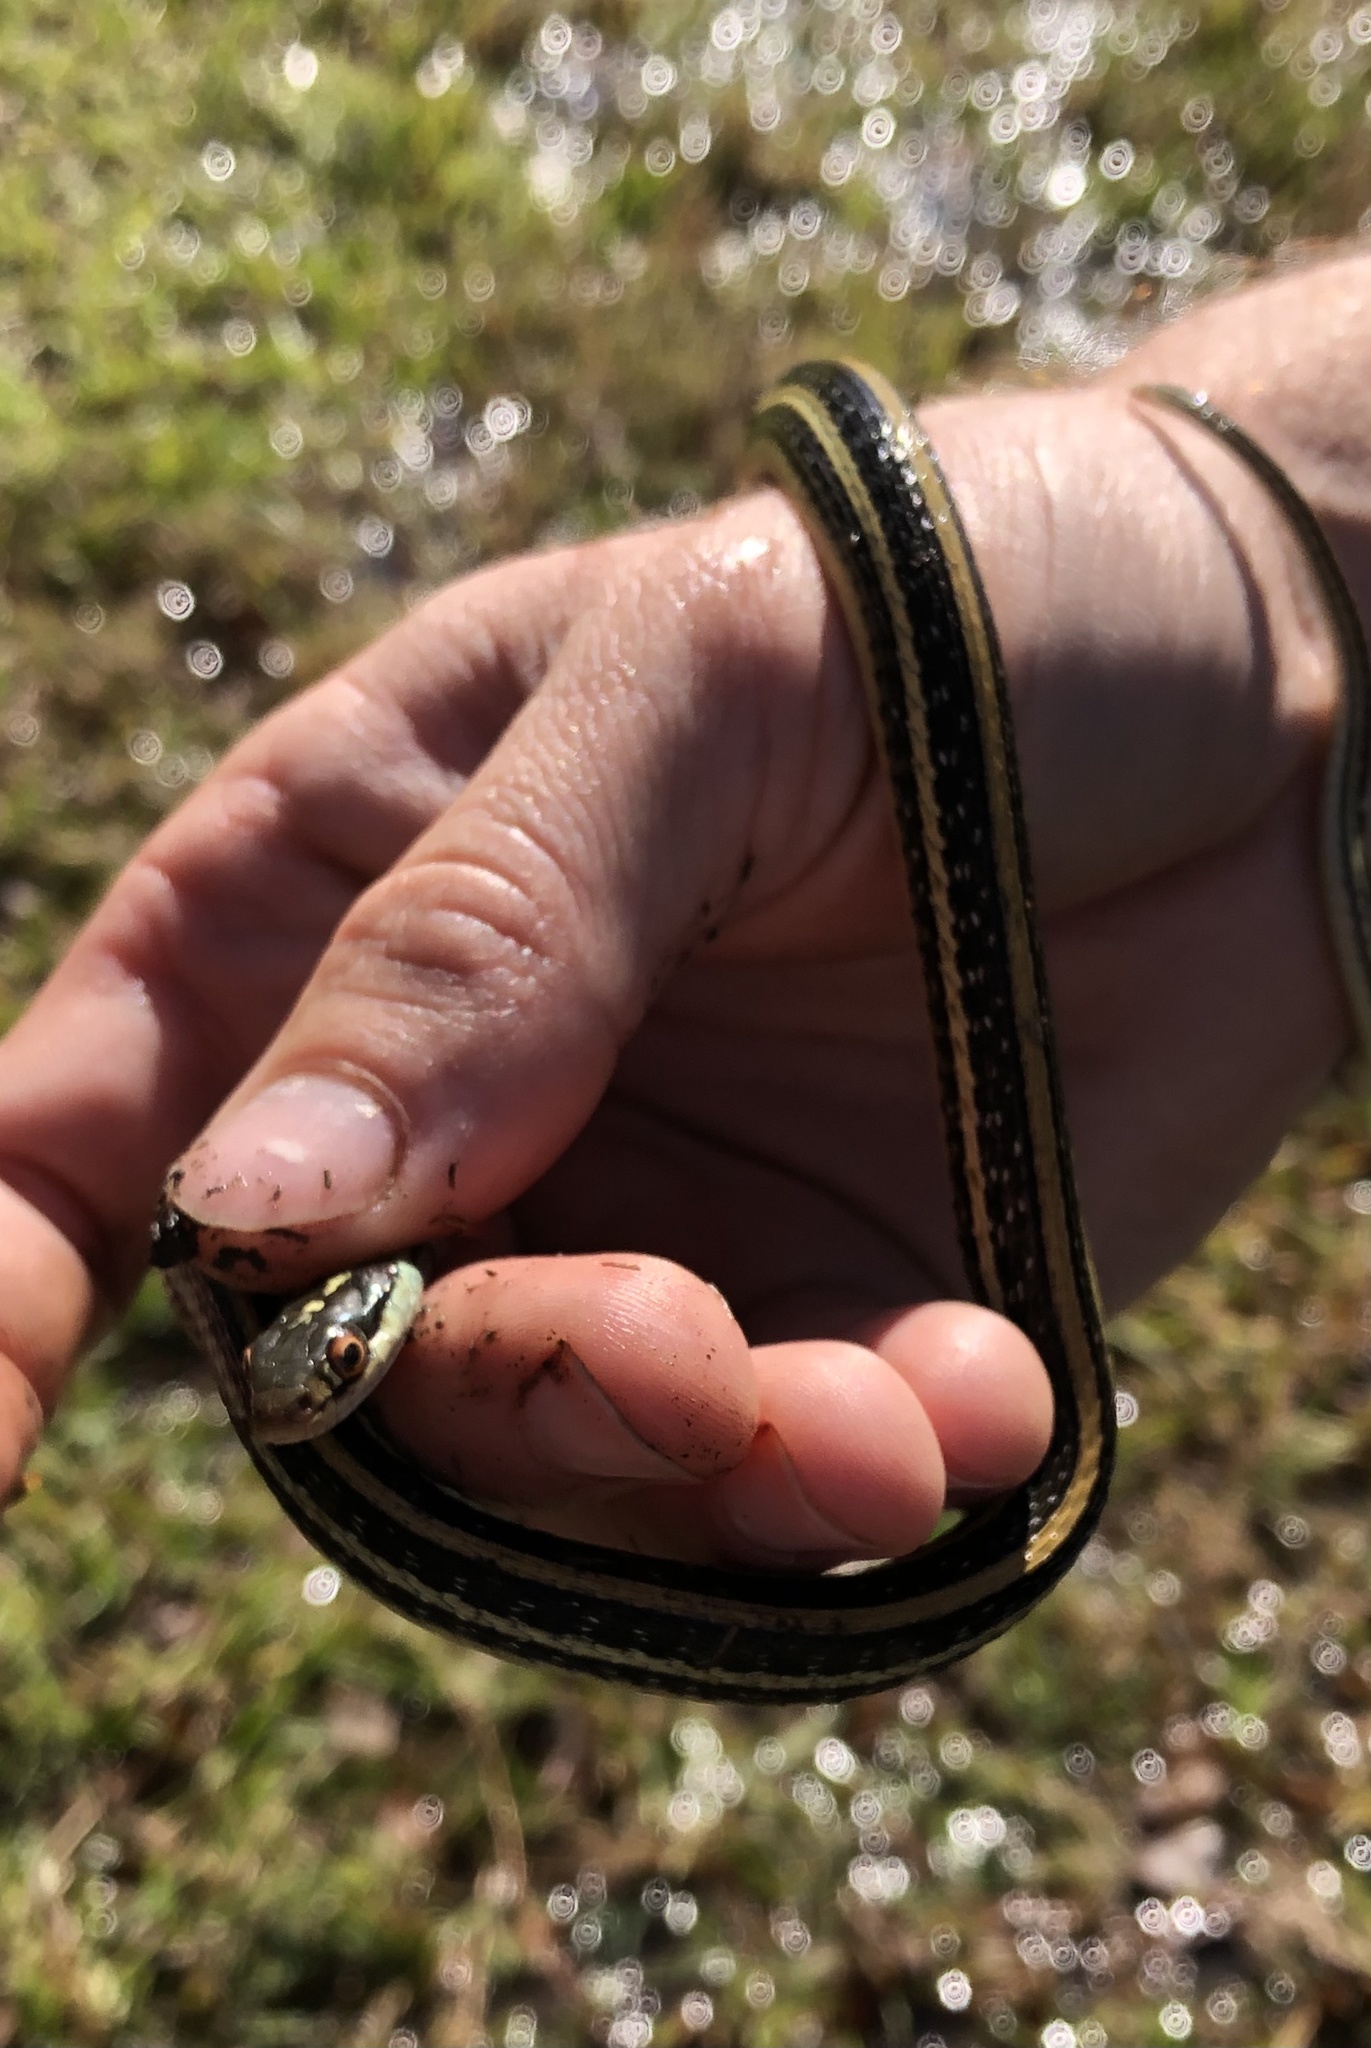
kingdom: Animalia
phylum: Chordata
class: Squamata
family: Colubridae
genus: Thamnophis
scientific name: Thamnophis proximus
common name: Western ribbon snake
